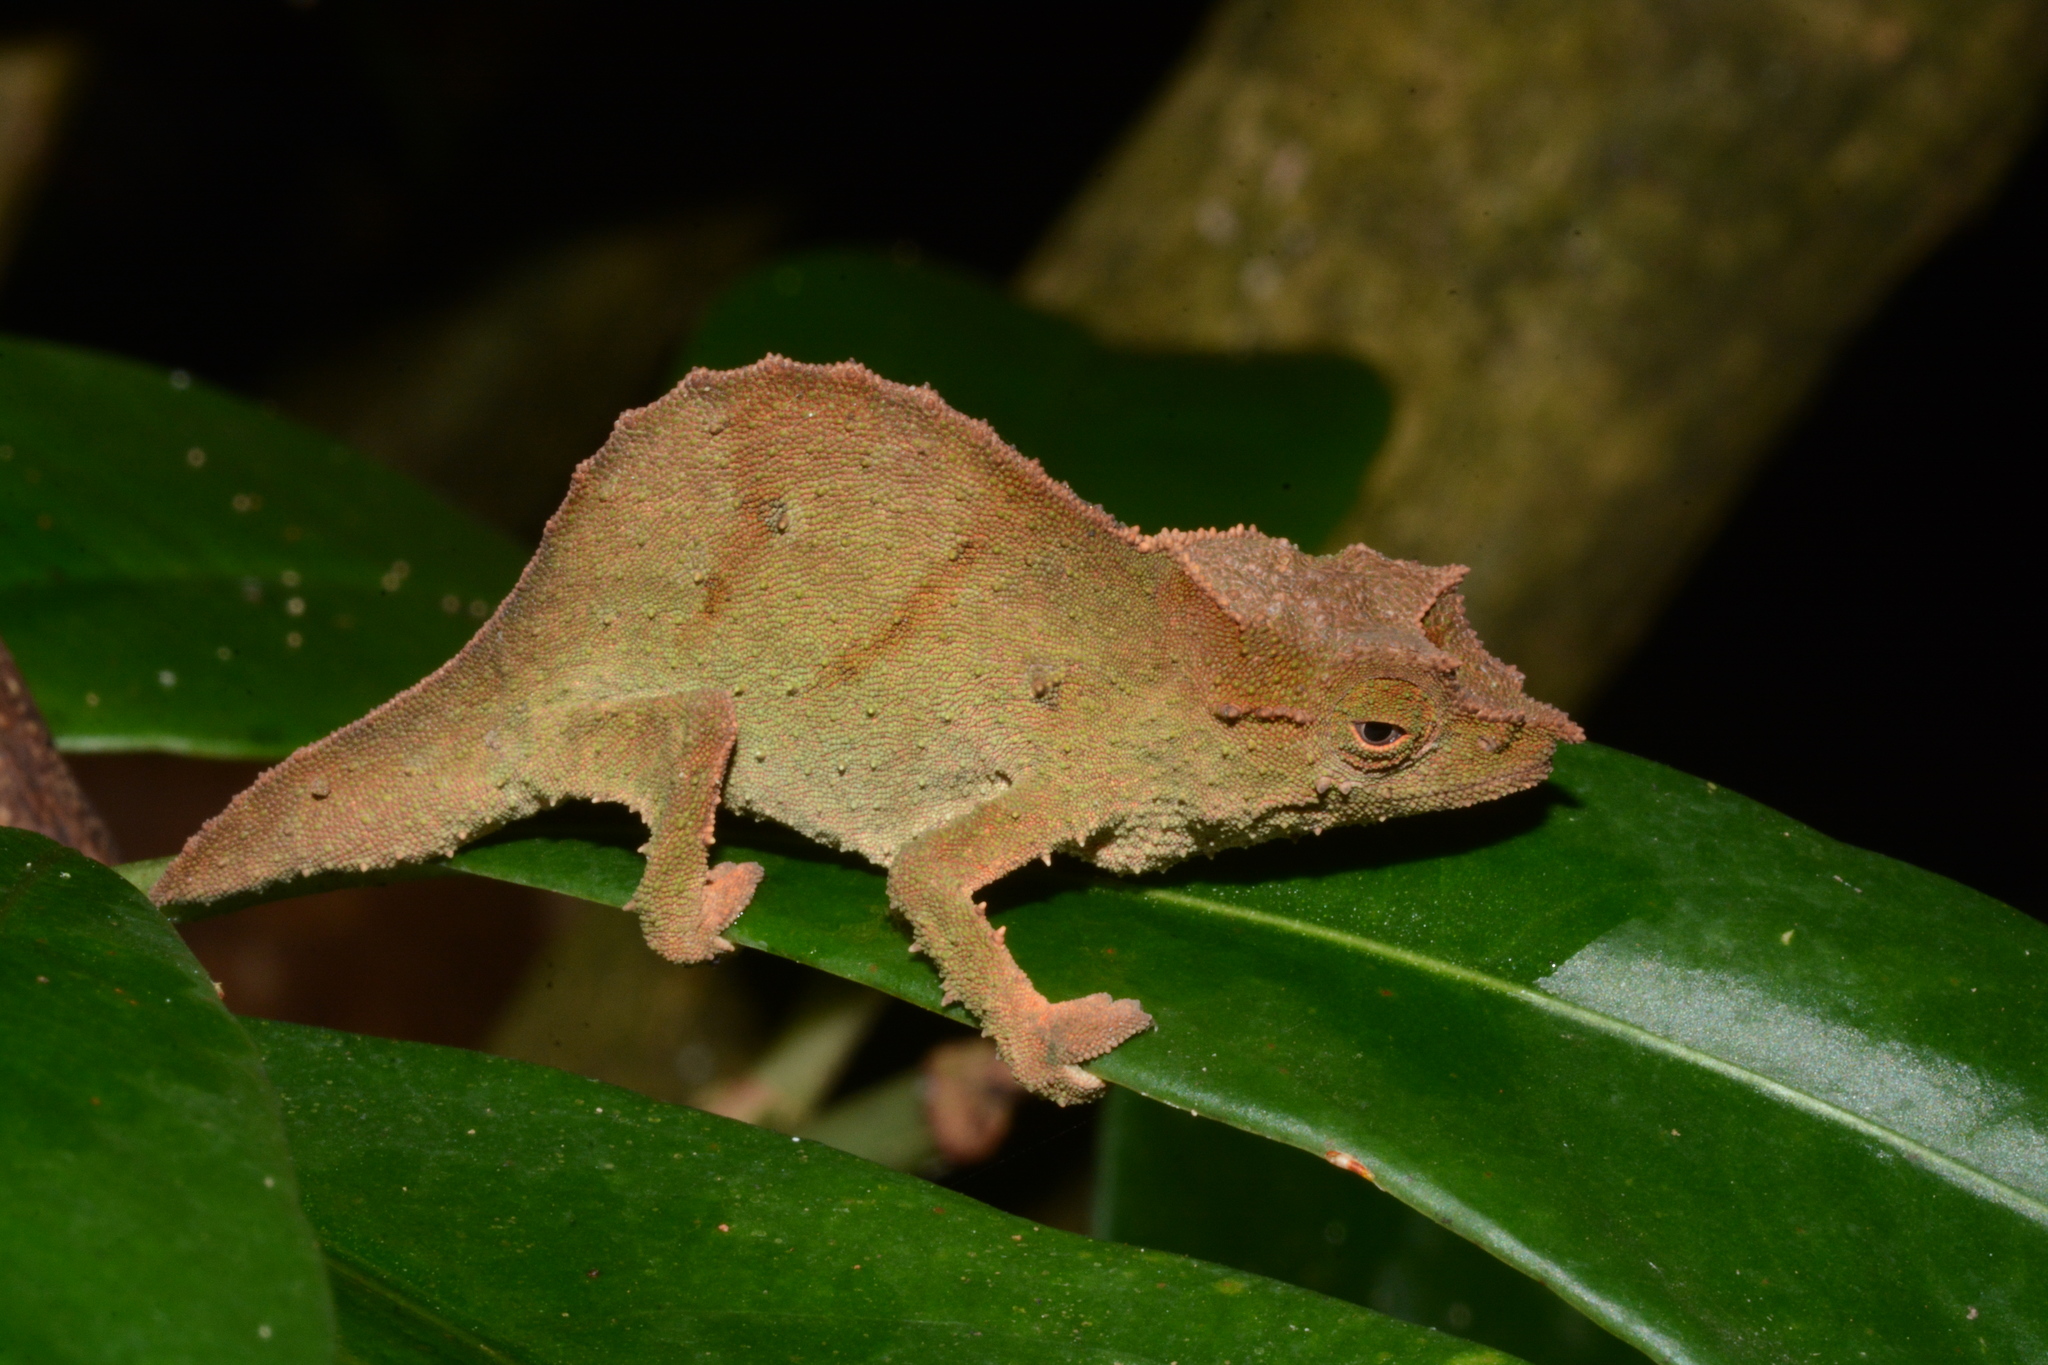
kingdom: Animalia
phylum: Chordata
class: Squamata
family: Chamaeleonidae
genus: Rhampholeon
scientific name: Rhampholeon uluguruensis
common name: Uluguru pygmy chameleon
